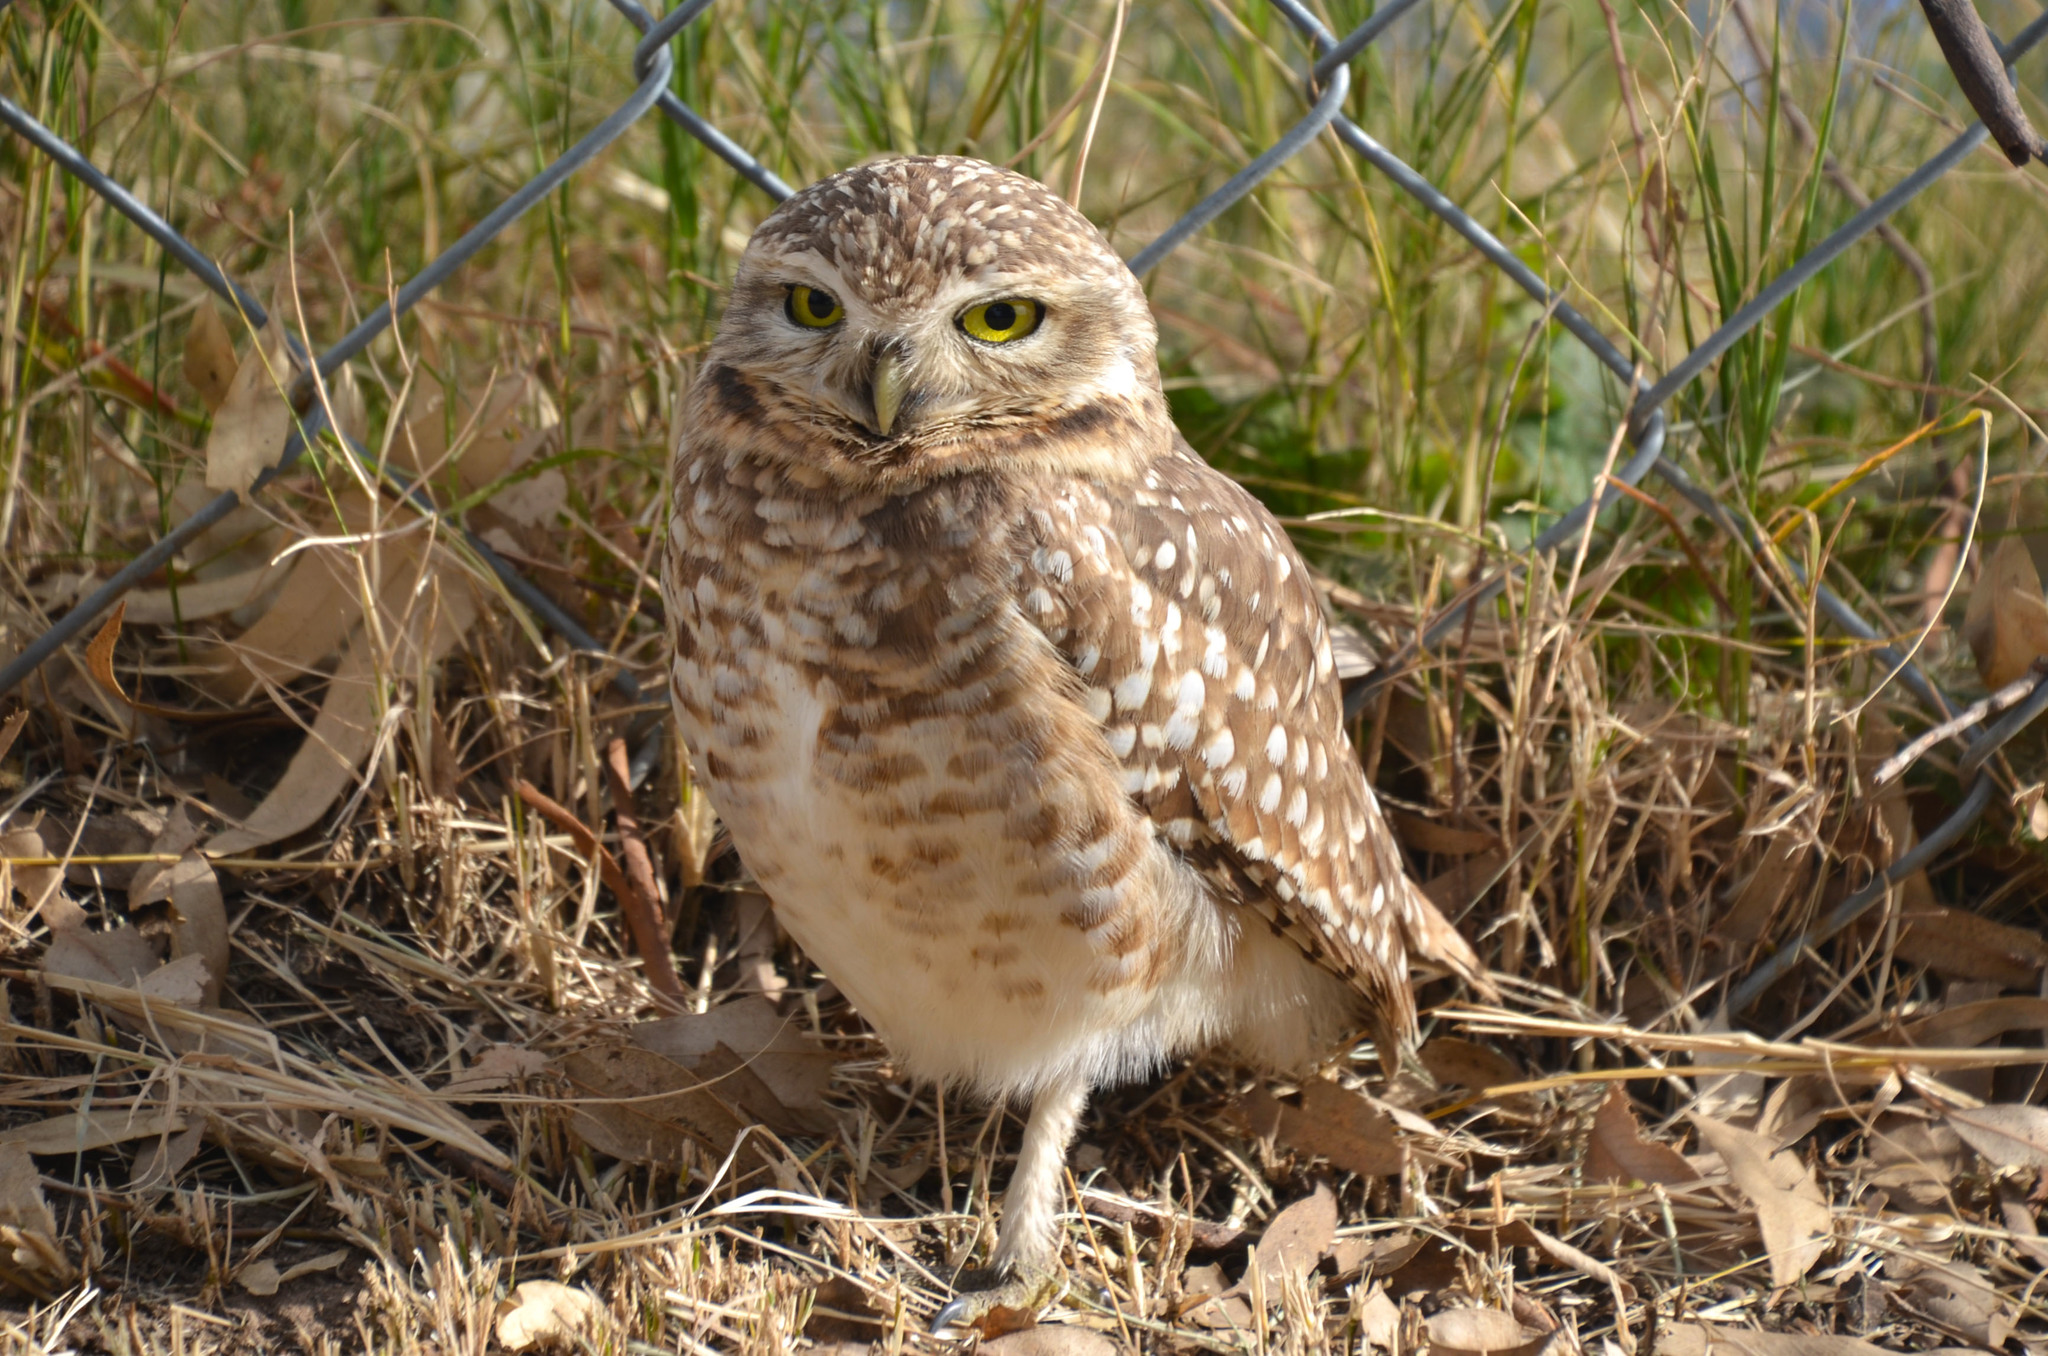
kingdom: Animalia
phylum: Chordata
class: Aves
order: Strigiformes
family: Strigidae
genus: Athene
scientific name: Athene cunicularia
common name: Burrowing owl
